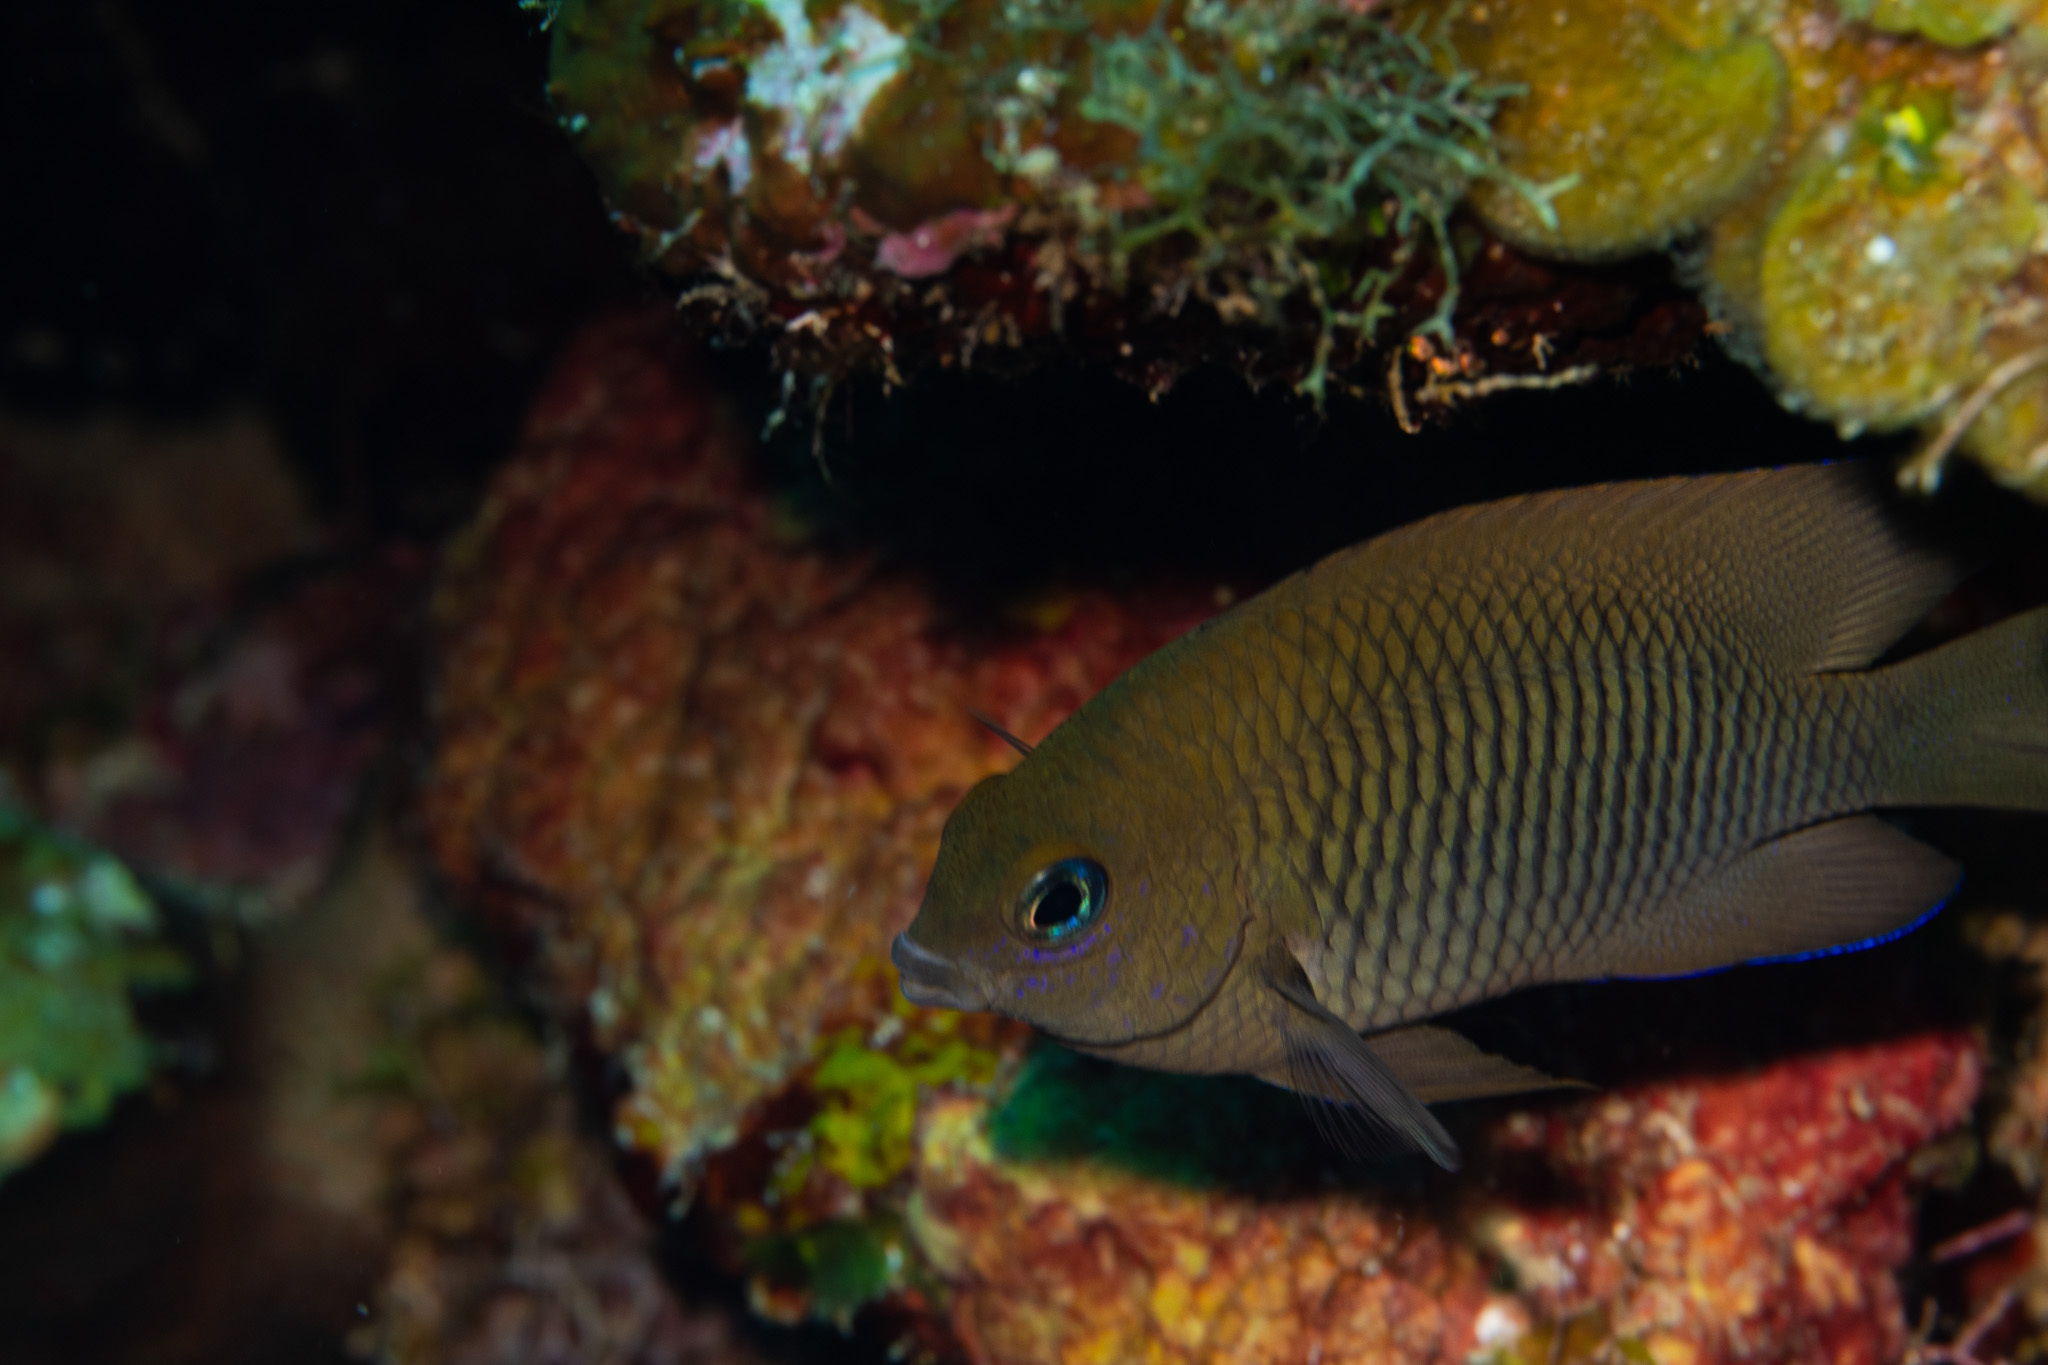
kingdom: Animalia
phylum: Chordata
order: Perciformes
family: Pomacentridae
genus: Stegastes
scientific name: Stegastes diencaeus
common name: Longfin damselfish
